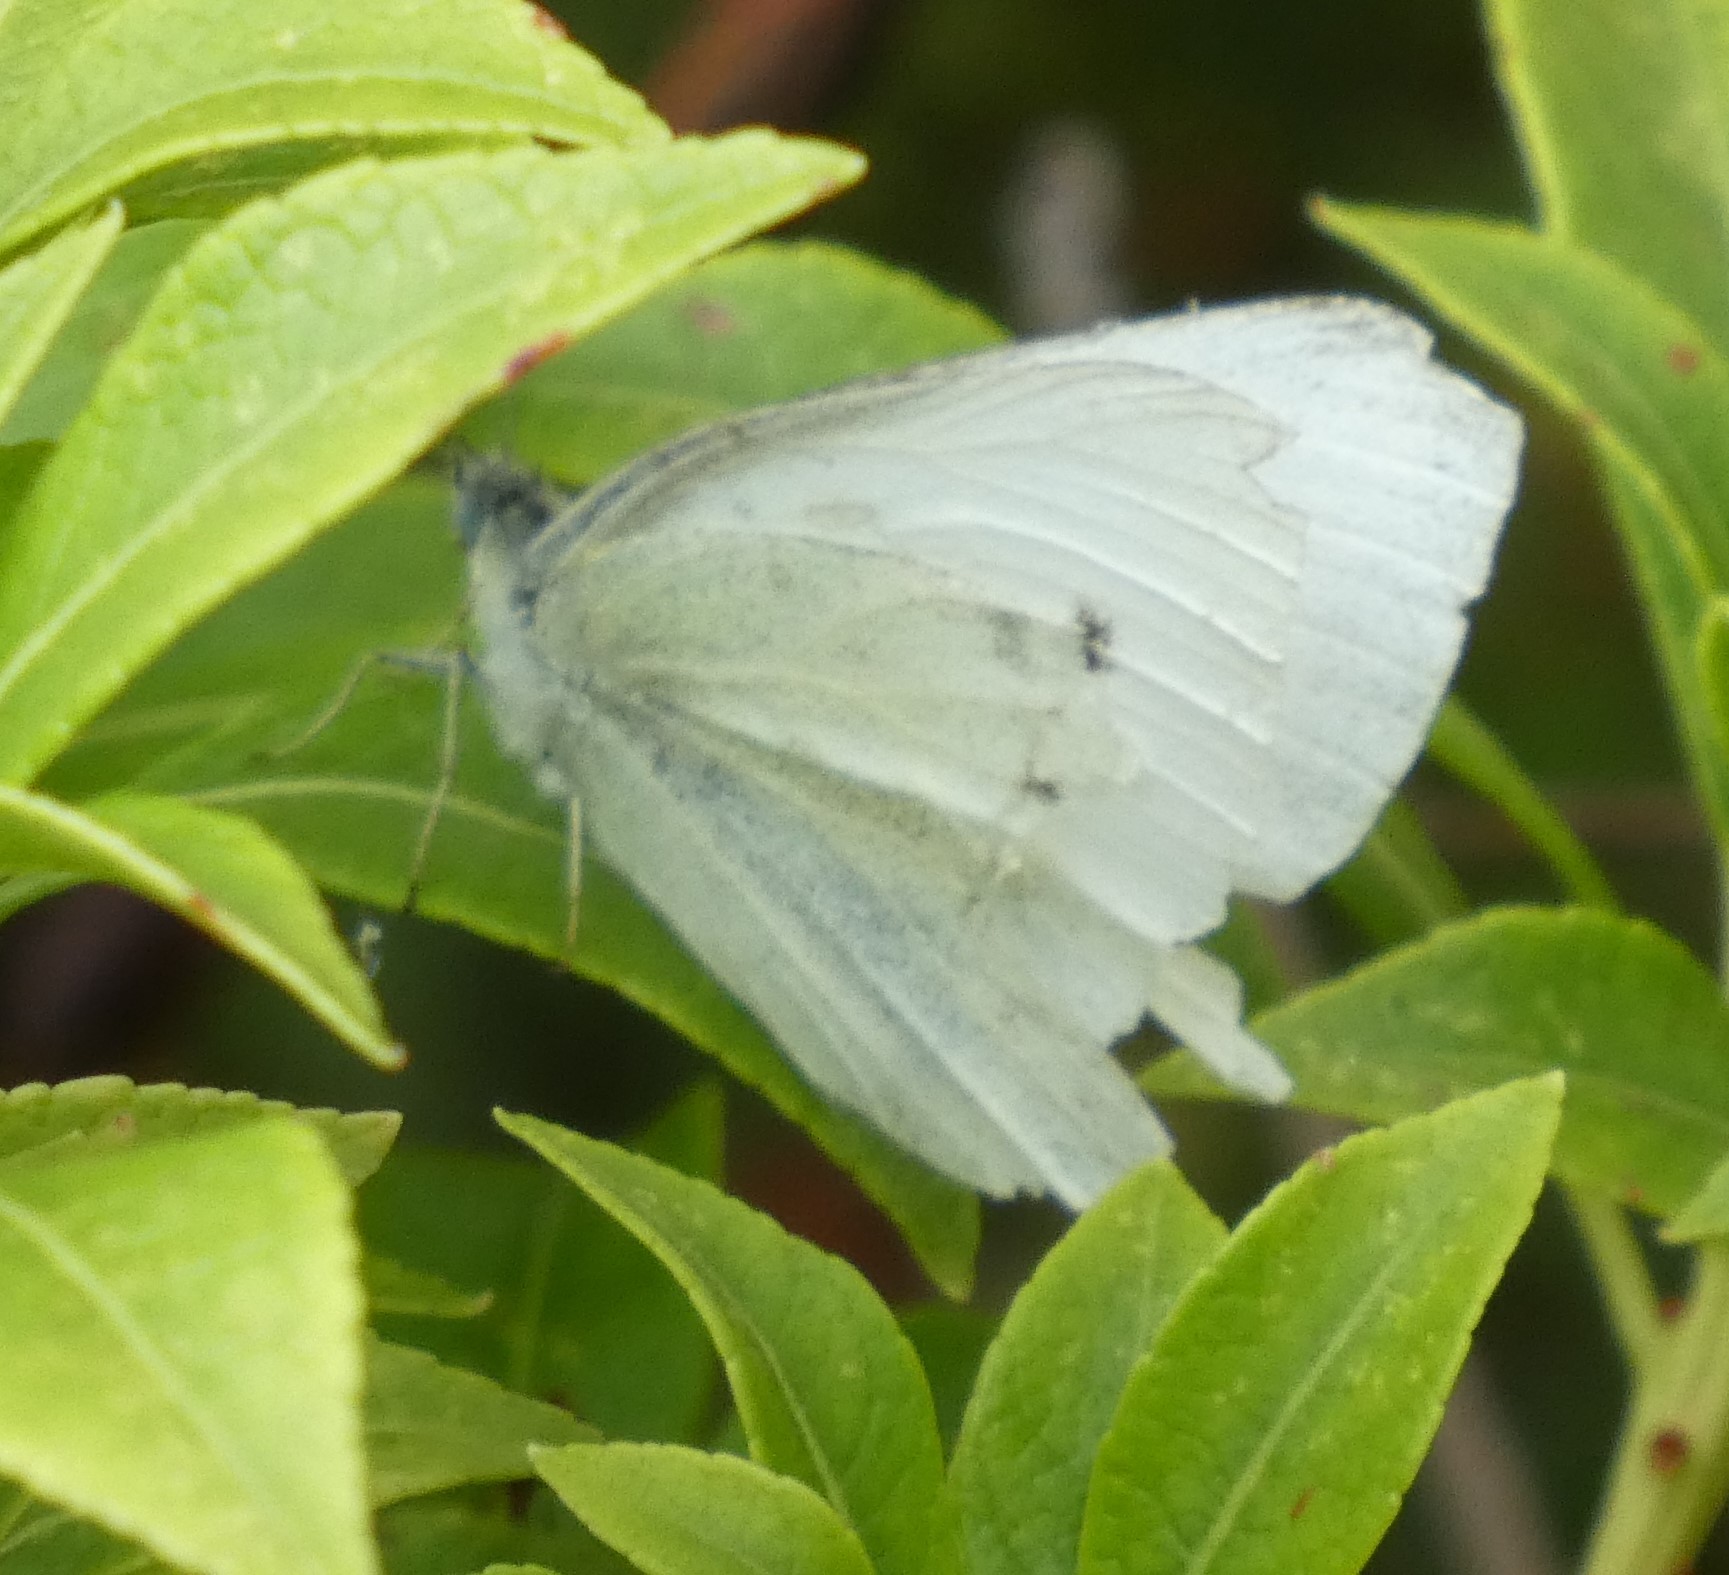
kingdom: Animalia
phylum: Arthropoda
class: Insecta
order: Lepidoptera
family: Pieridae
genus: Pieris
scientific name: Pieris rapae
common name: Small white
